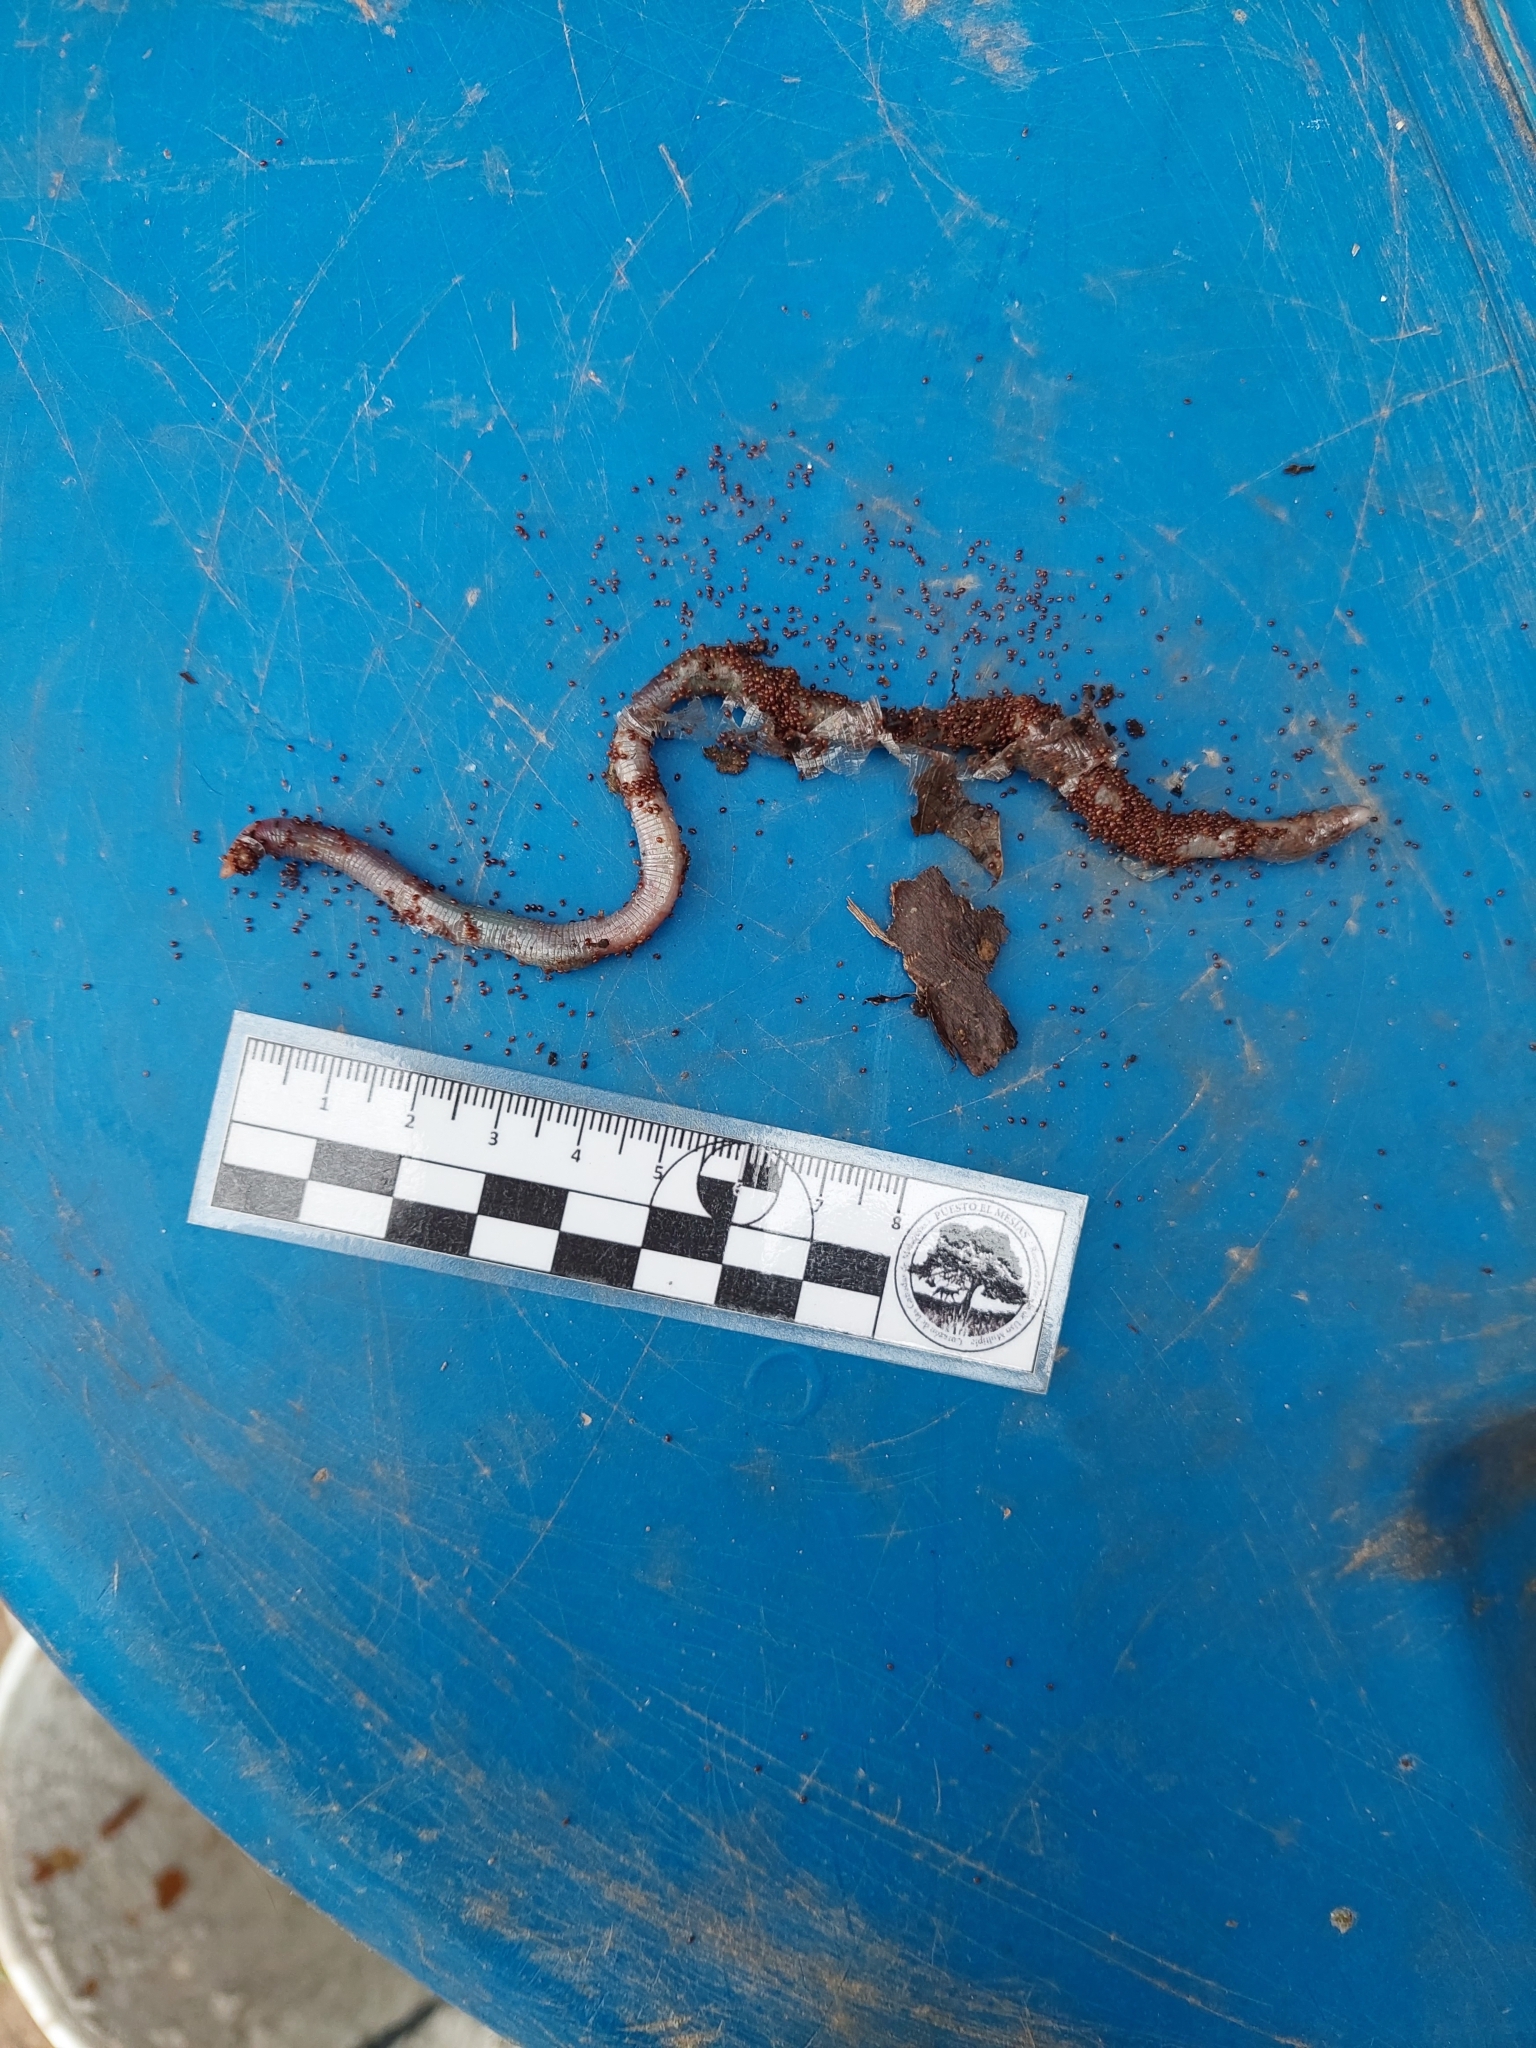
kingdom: Animalia
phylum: Chordata
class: Squamata
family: Amphisbaenidae
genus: Amphisbaena
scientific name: Amphisbaena kingii
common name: King's worm lizard
